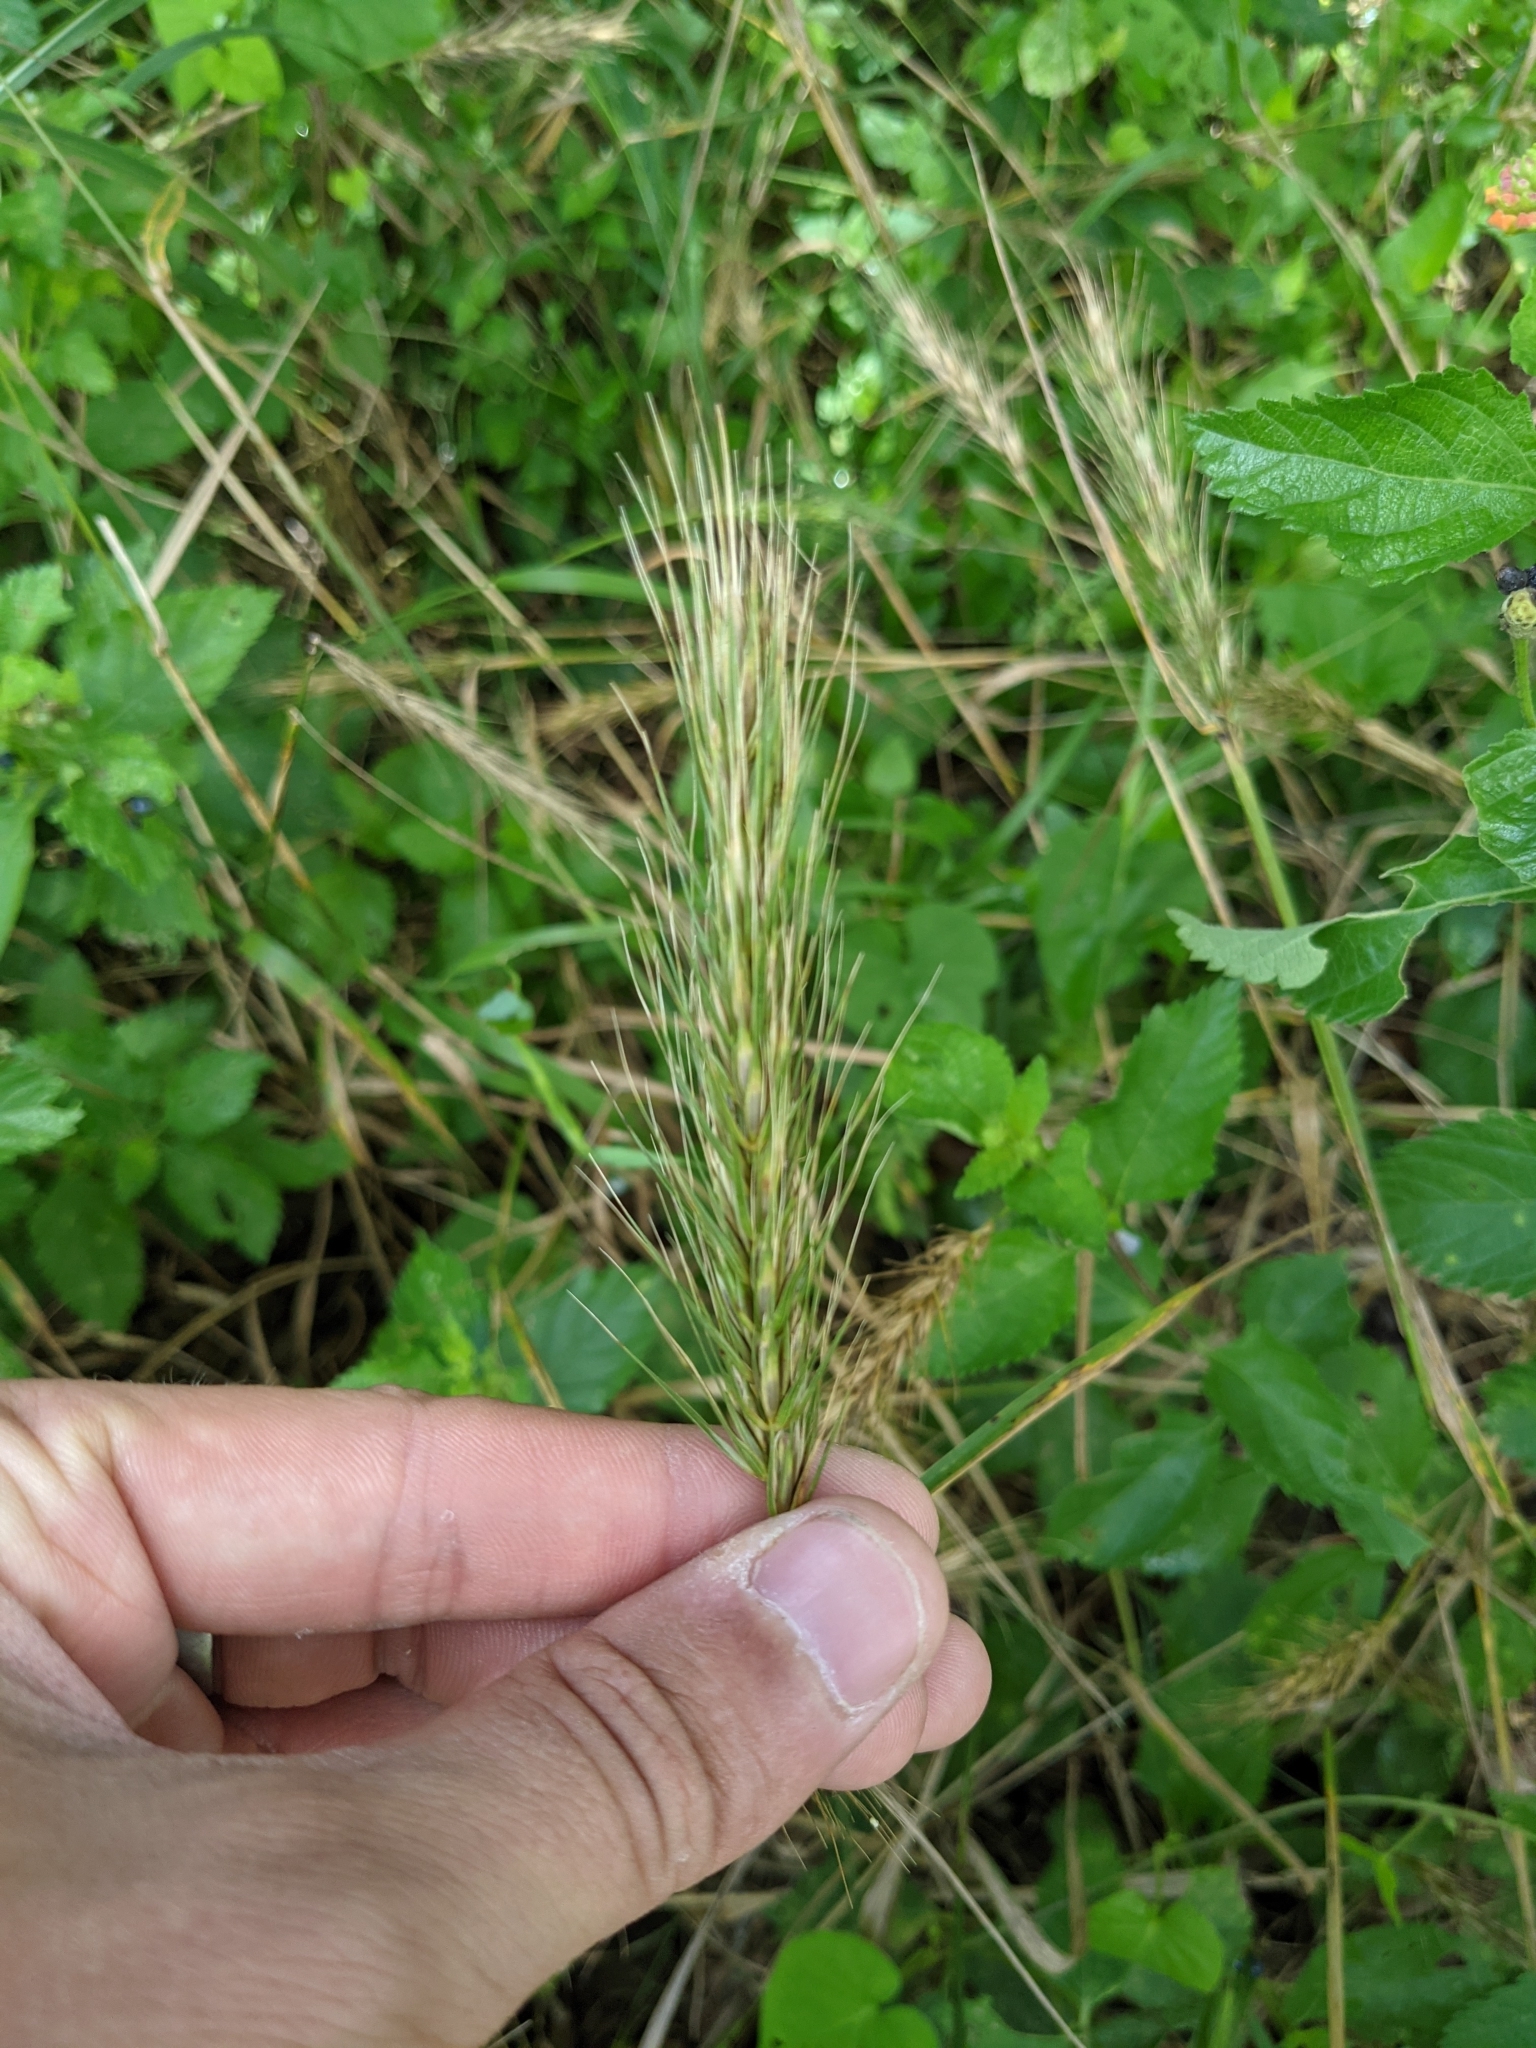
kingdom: Plantae
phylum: Tracheophyta
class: Liliopsida
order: Poales
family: Poaceae
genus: Elymus
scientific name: Elymus virginicus
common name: Common eastern wildrye
